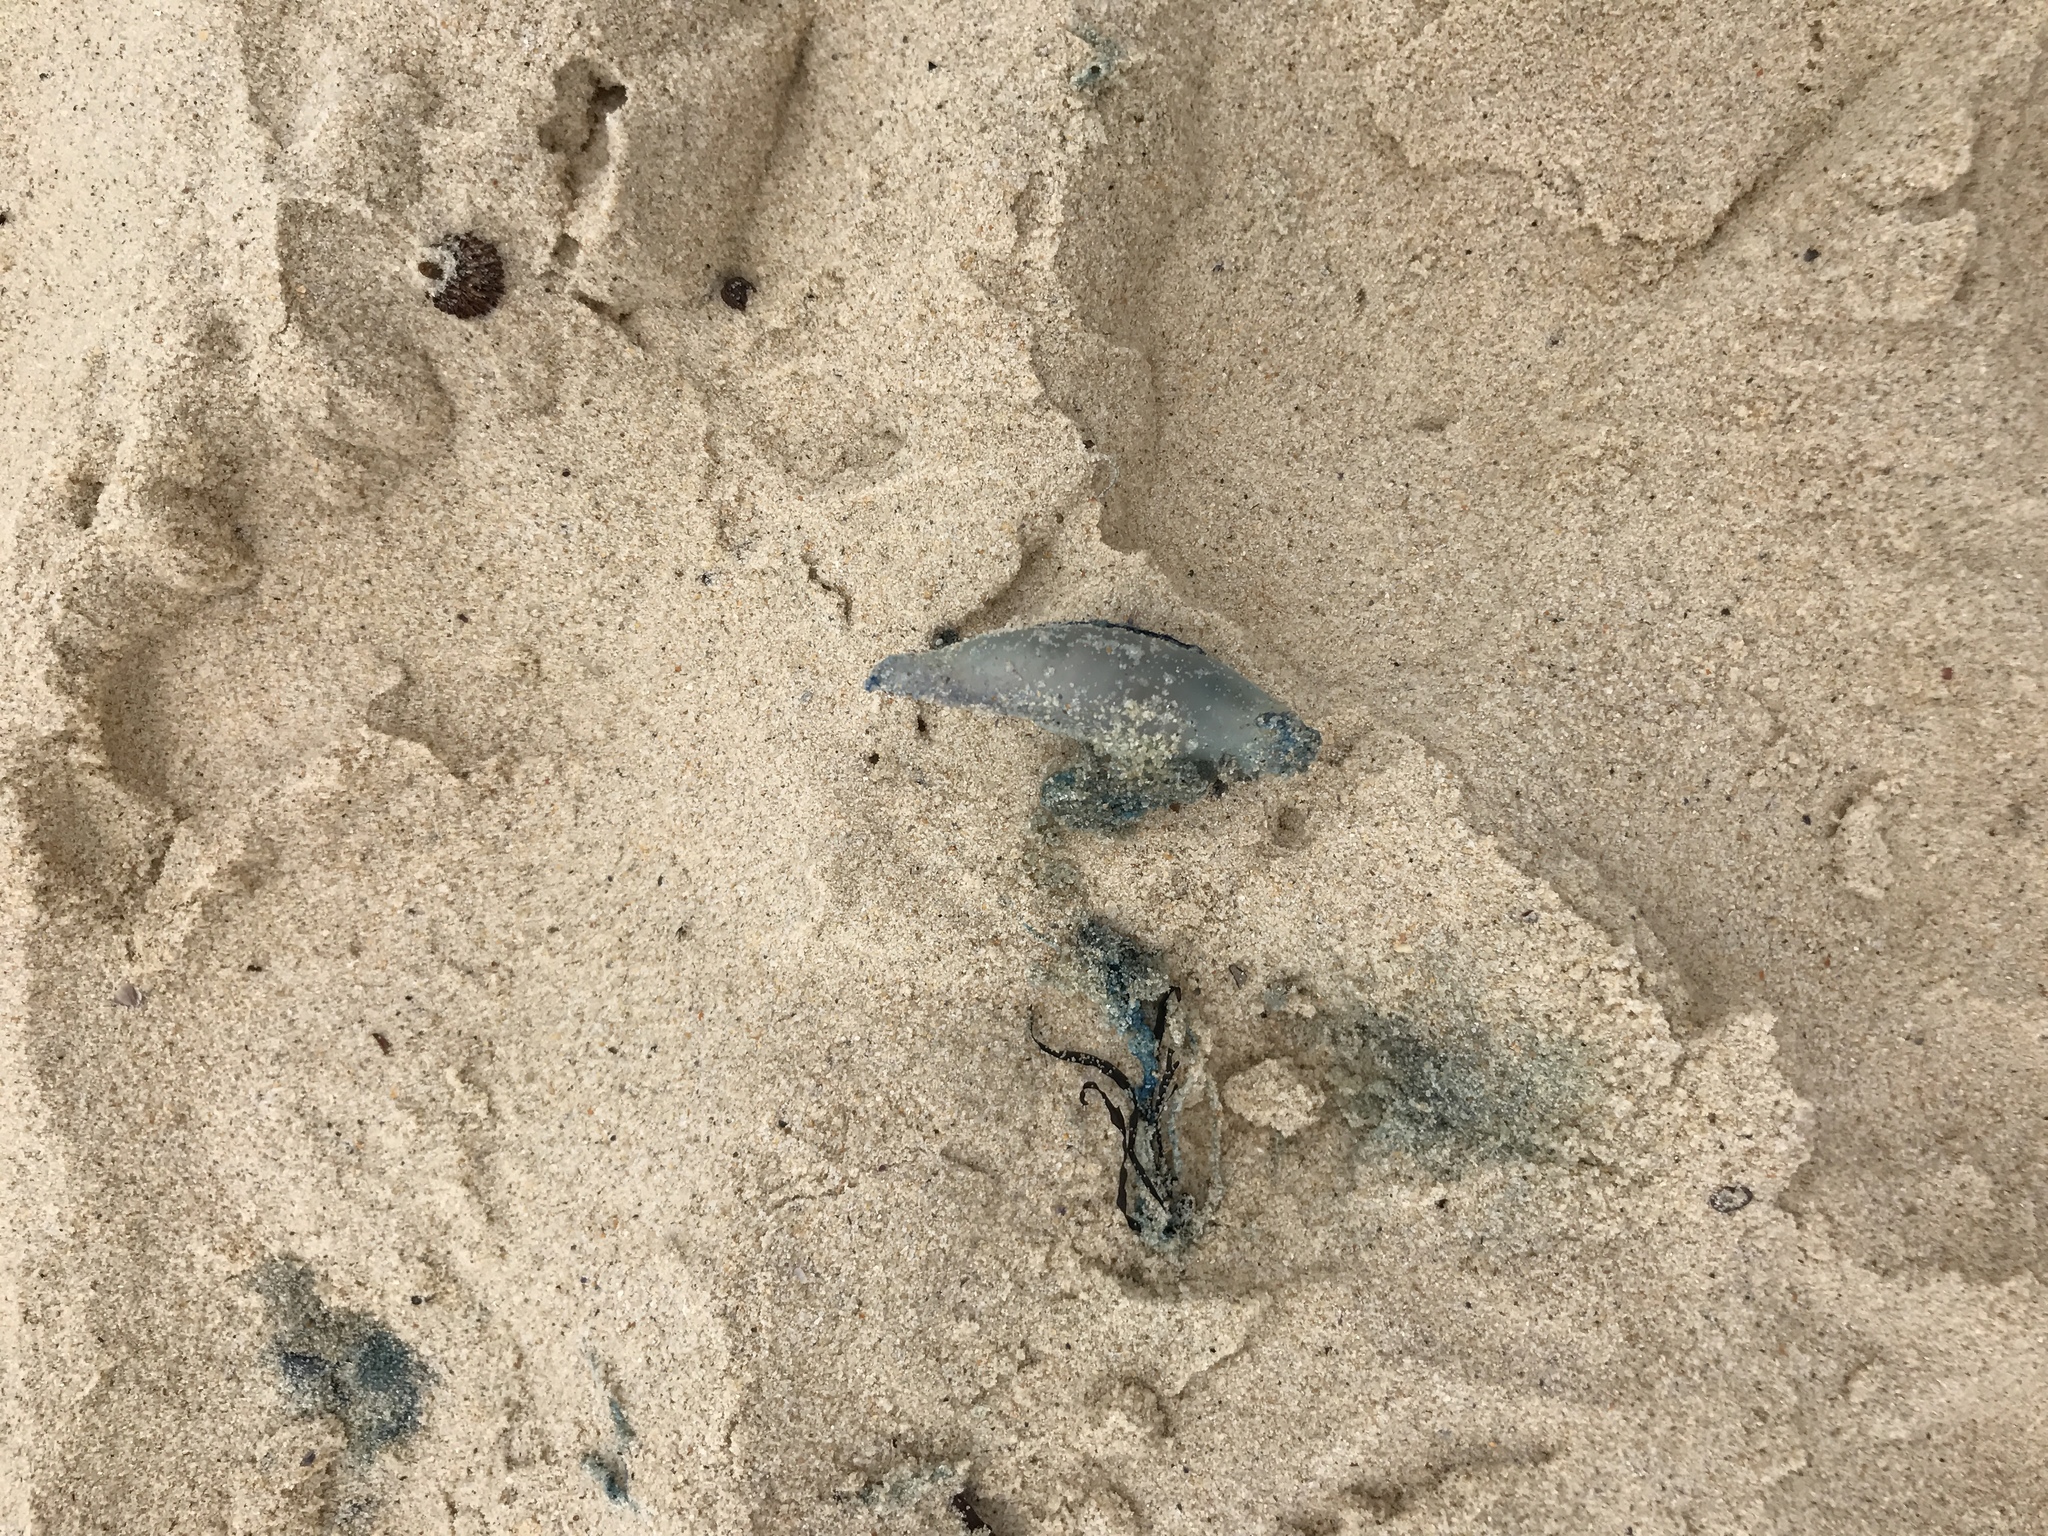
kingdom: Animalia
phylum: Cnidaria
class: Hydrozoa
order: Siphonophorae
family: Physaliidae
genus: Physalia
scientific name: Physalia physalis
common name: Portuguese man-of-war
